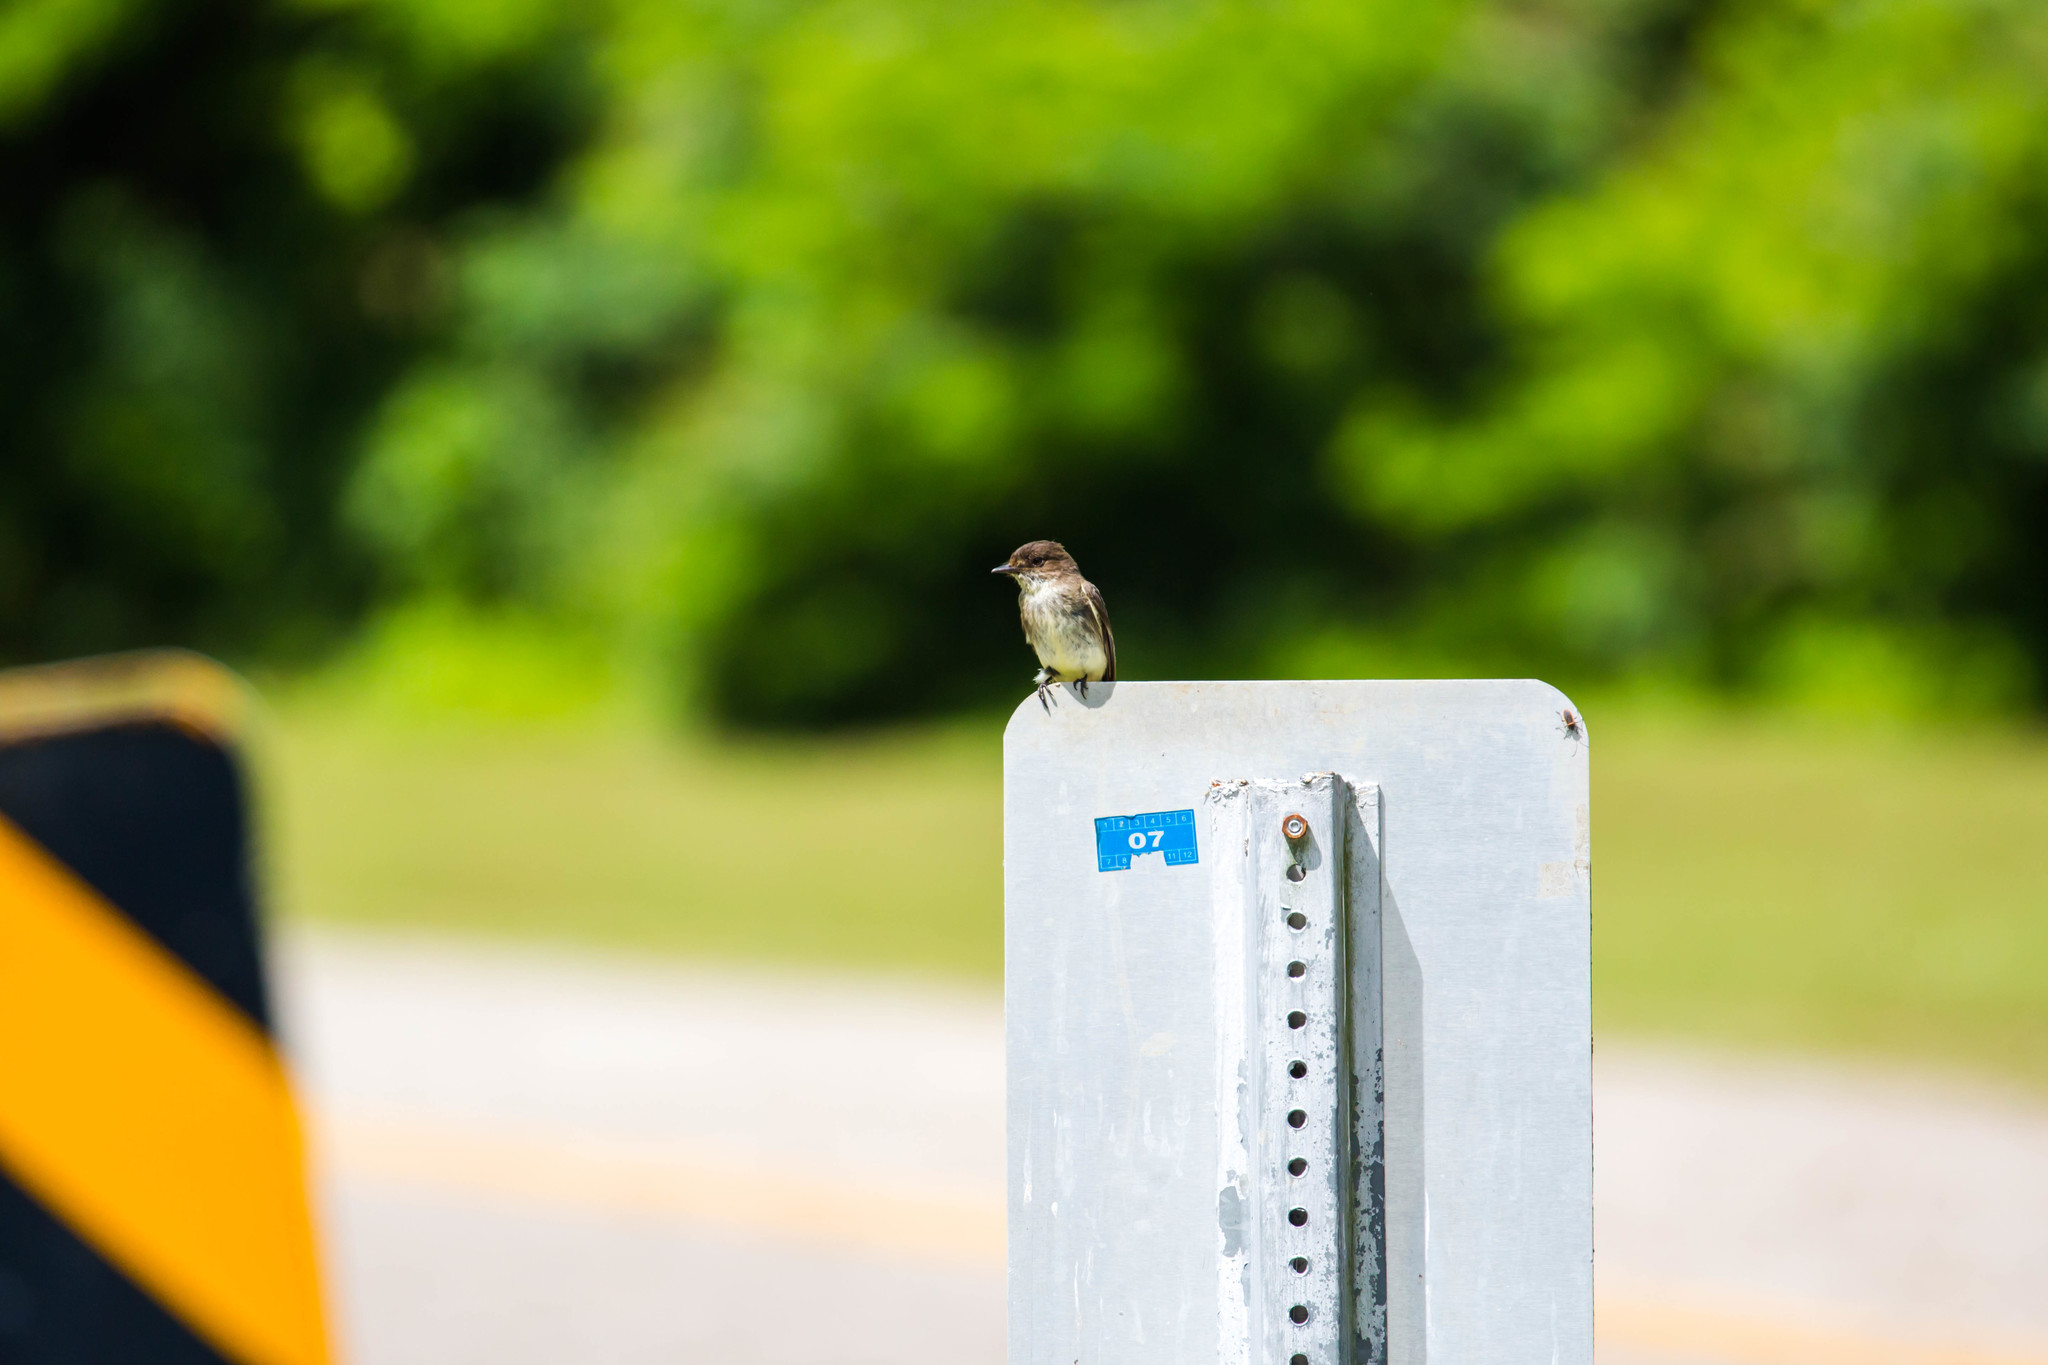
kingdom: Animalia
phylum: Chordata
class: Aves
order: Passeriformes
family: Tyrannidae
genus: Sayornis
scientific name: Sayornis phoebe
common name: Eastern phoebe
